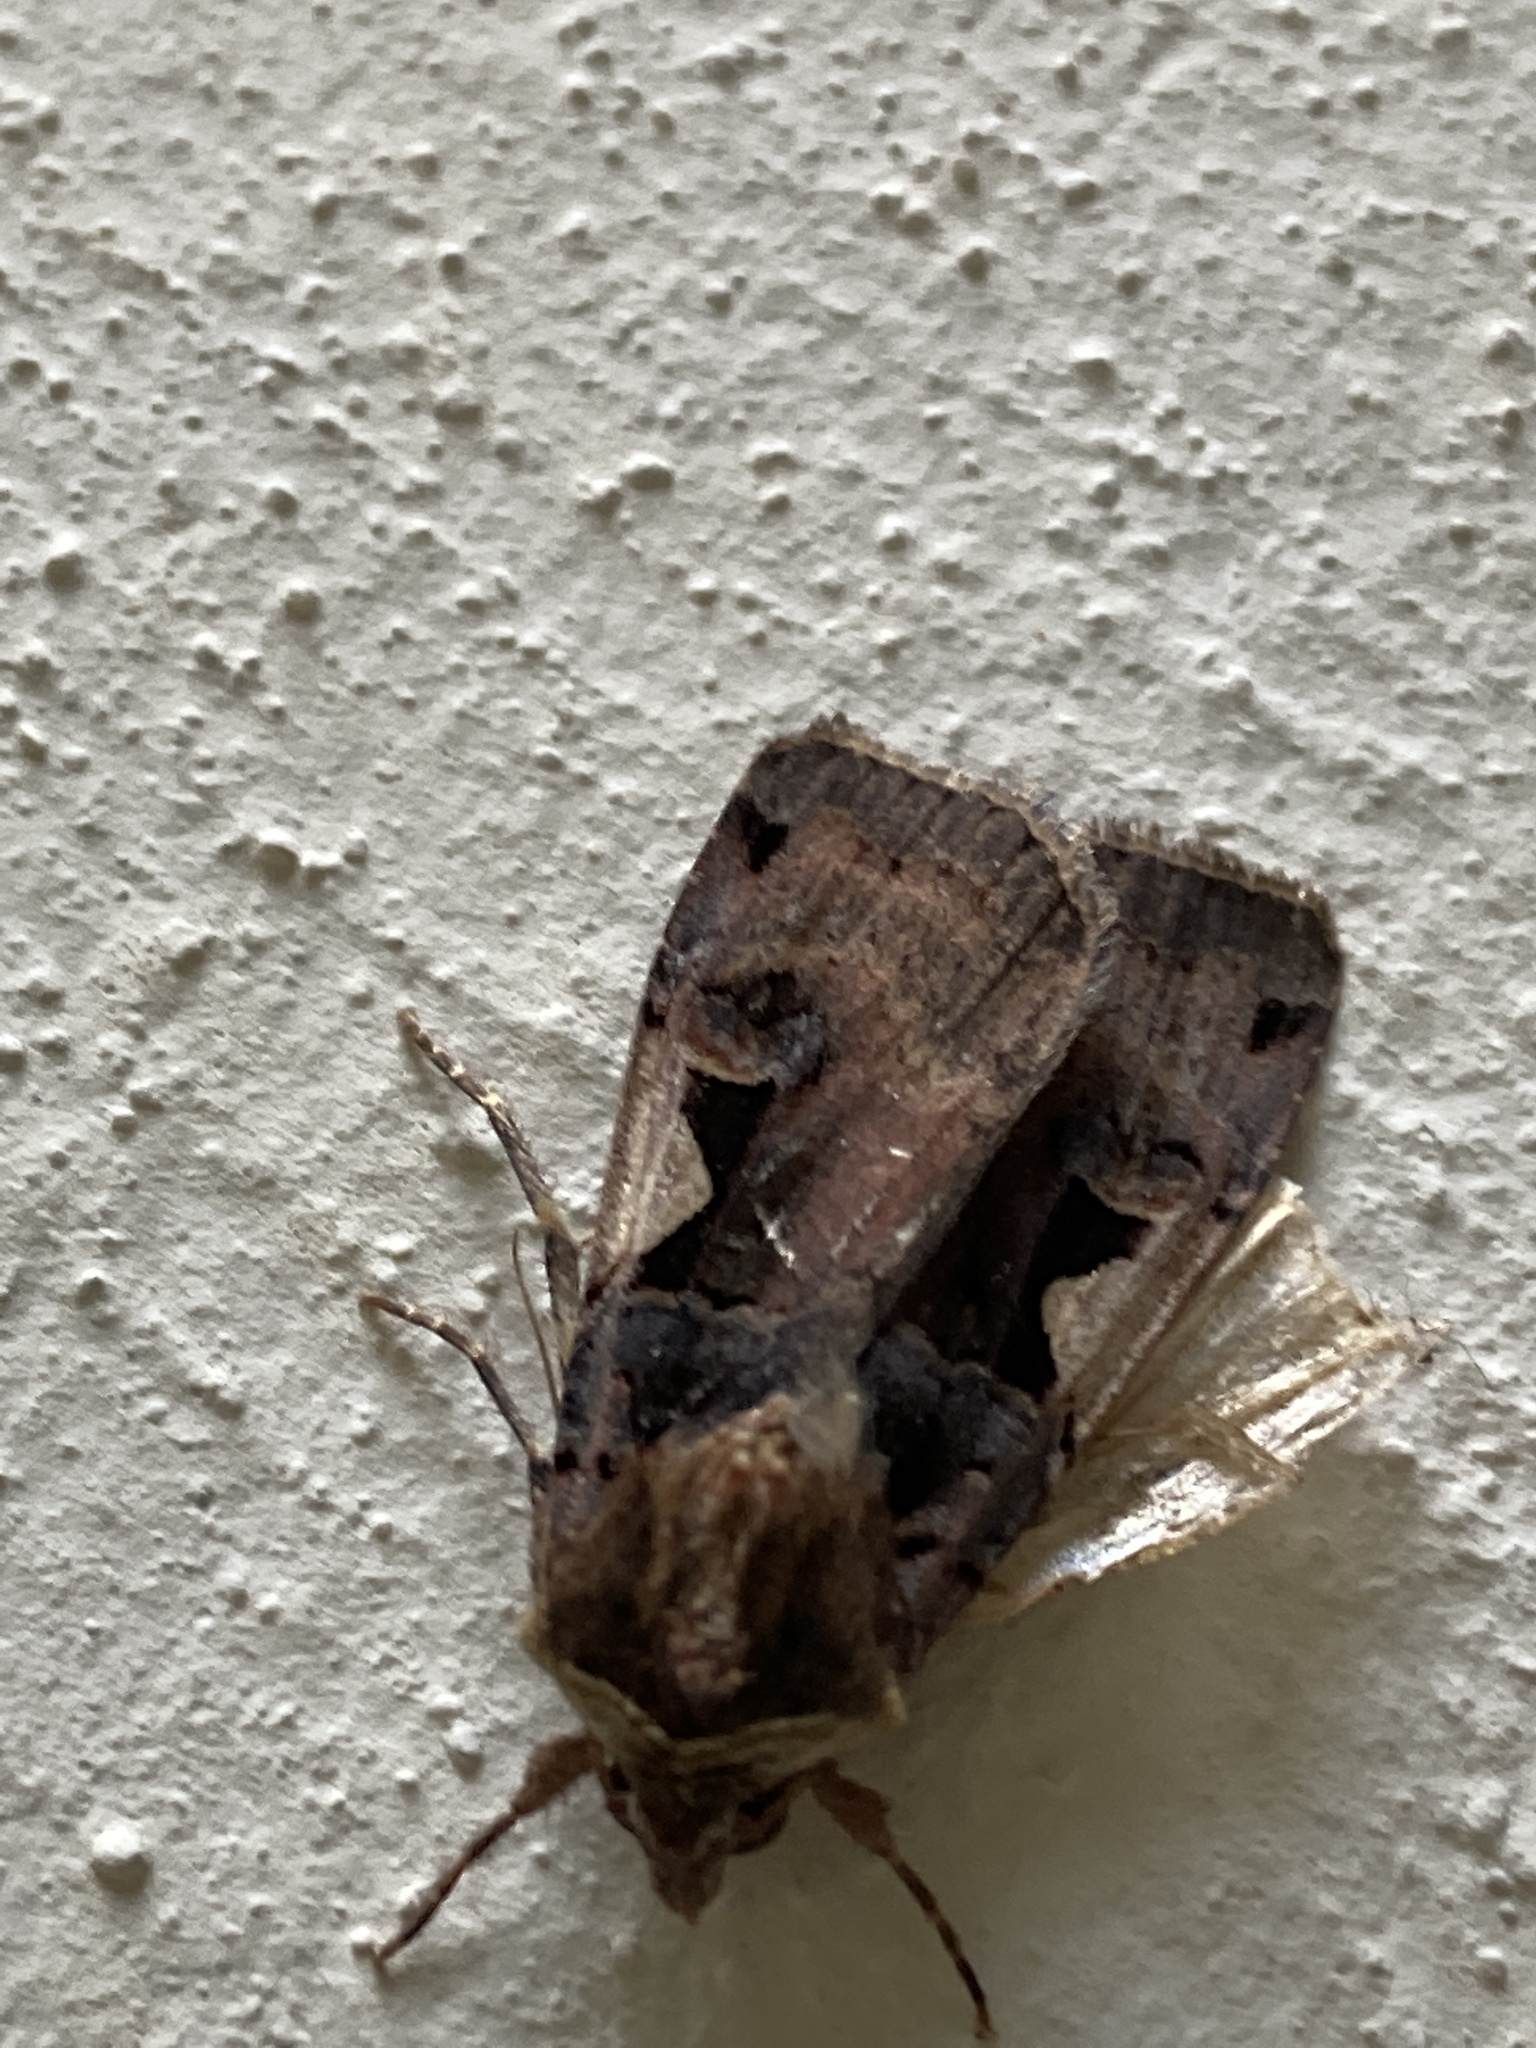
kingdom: Animalia
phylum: Arthropoda
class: Insecta
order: Lepidoptera
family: Noctuidae
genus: Xestia
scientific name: Xestia c-nigrum
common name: Setaceous hebrew character
